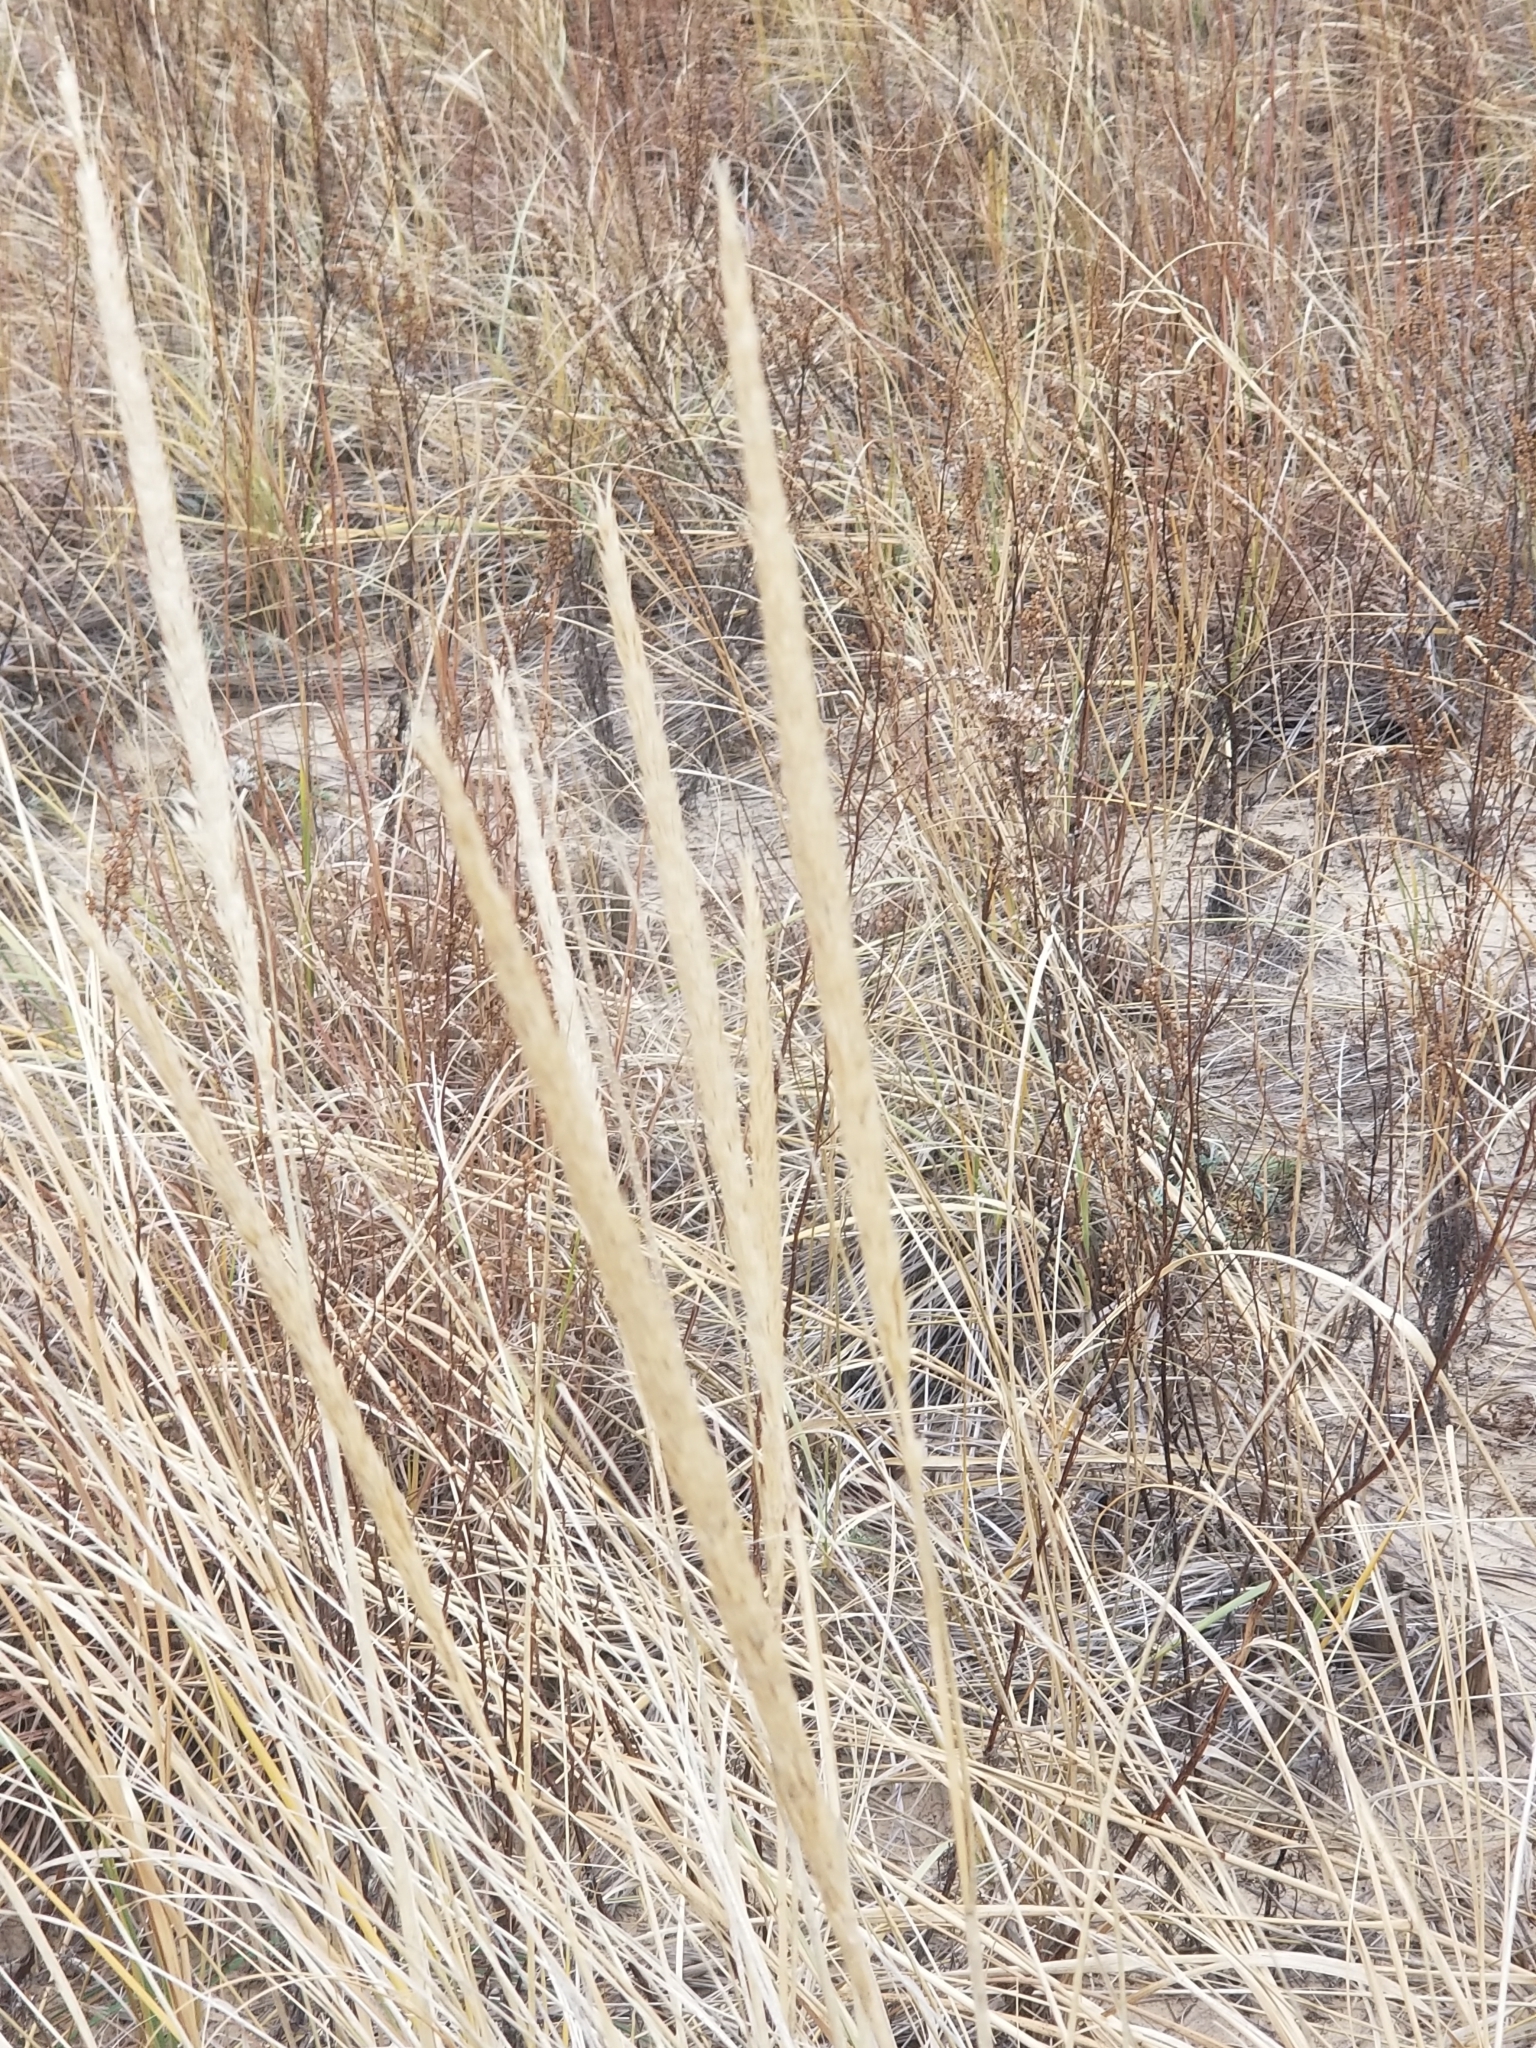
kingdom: Plantae
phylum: Tracheophyta
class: Liliopsida
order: Poales
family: Poaceae
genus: Calamagrostis
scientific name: Calamagrostis breviligulata
